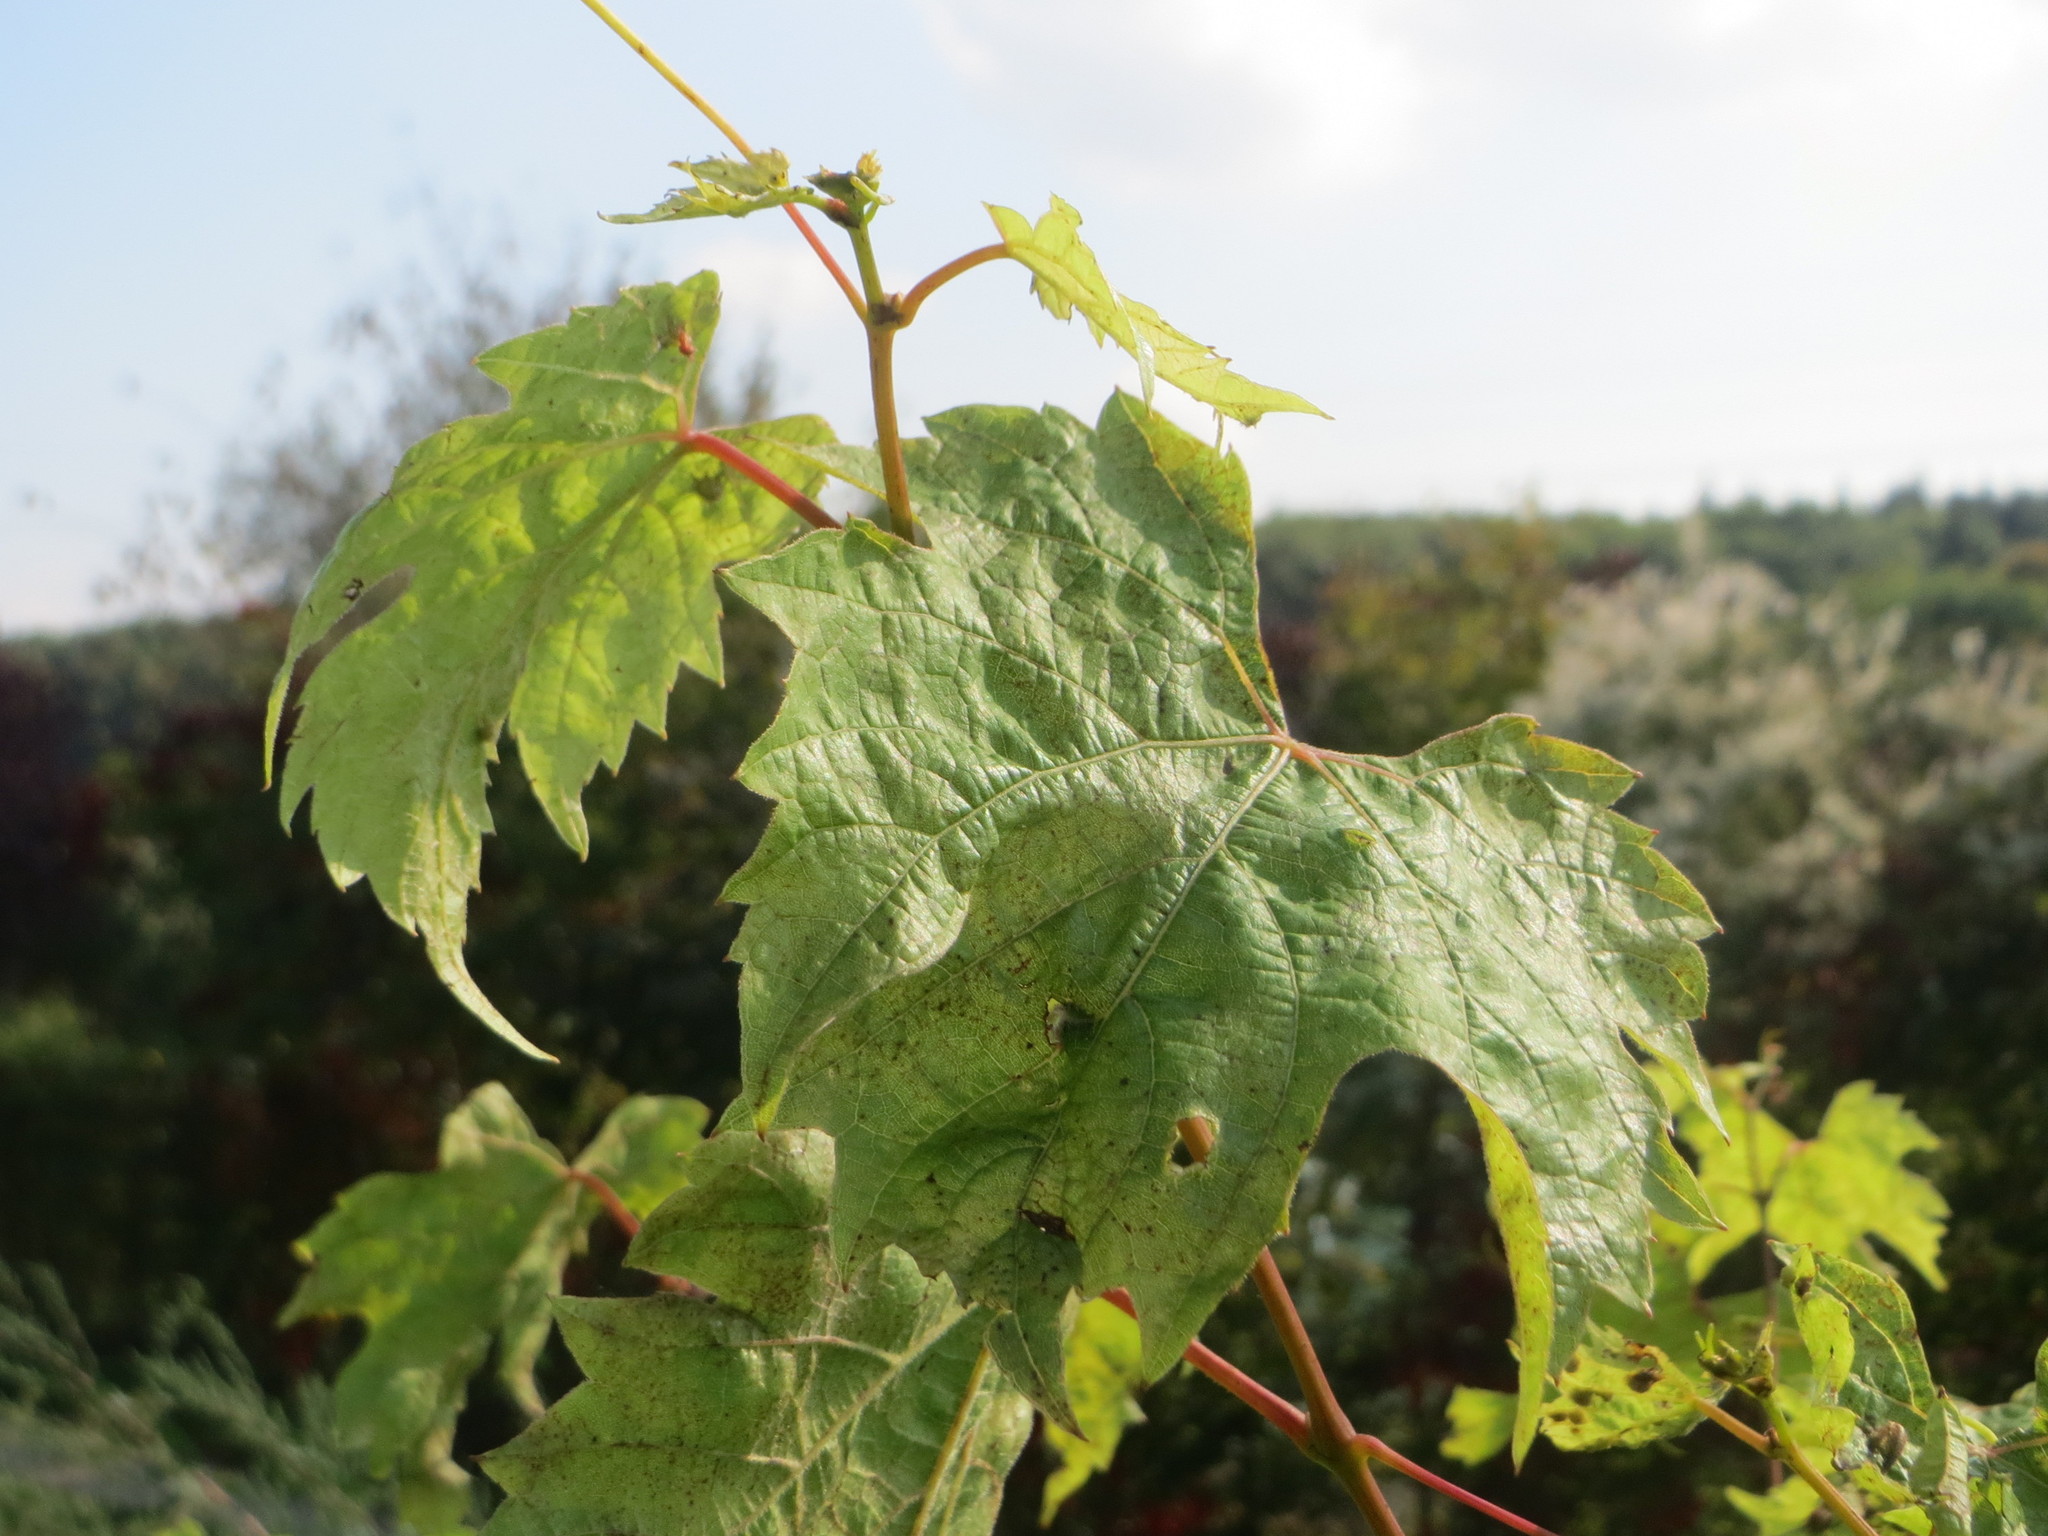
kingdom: Plantae
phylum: Tracheophyta
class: Magnoliopsida
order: Vitales
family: Vitaceae
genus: Vitis
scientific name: Vitis vinifera
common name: Grape-vine
